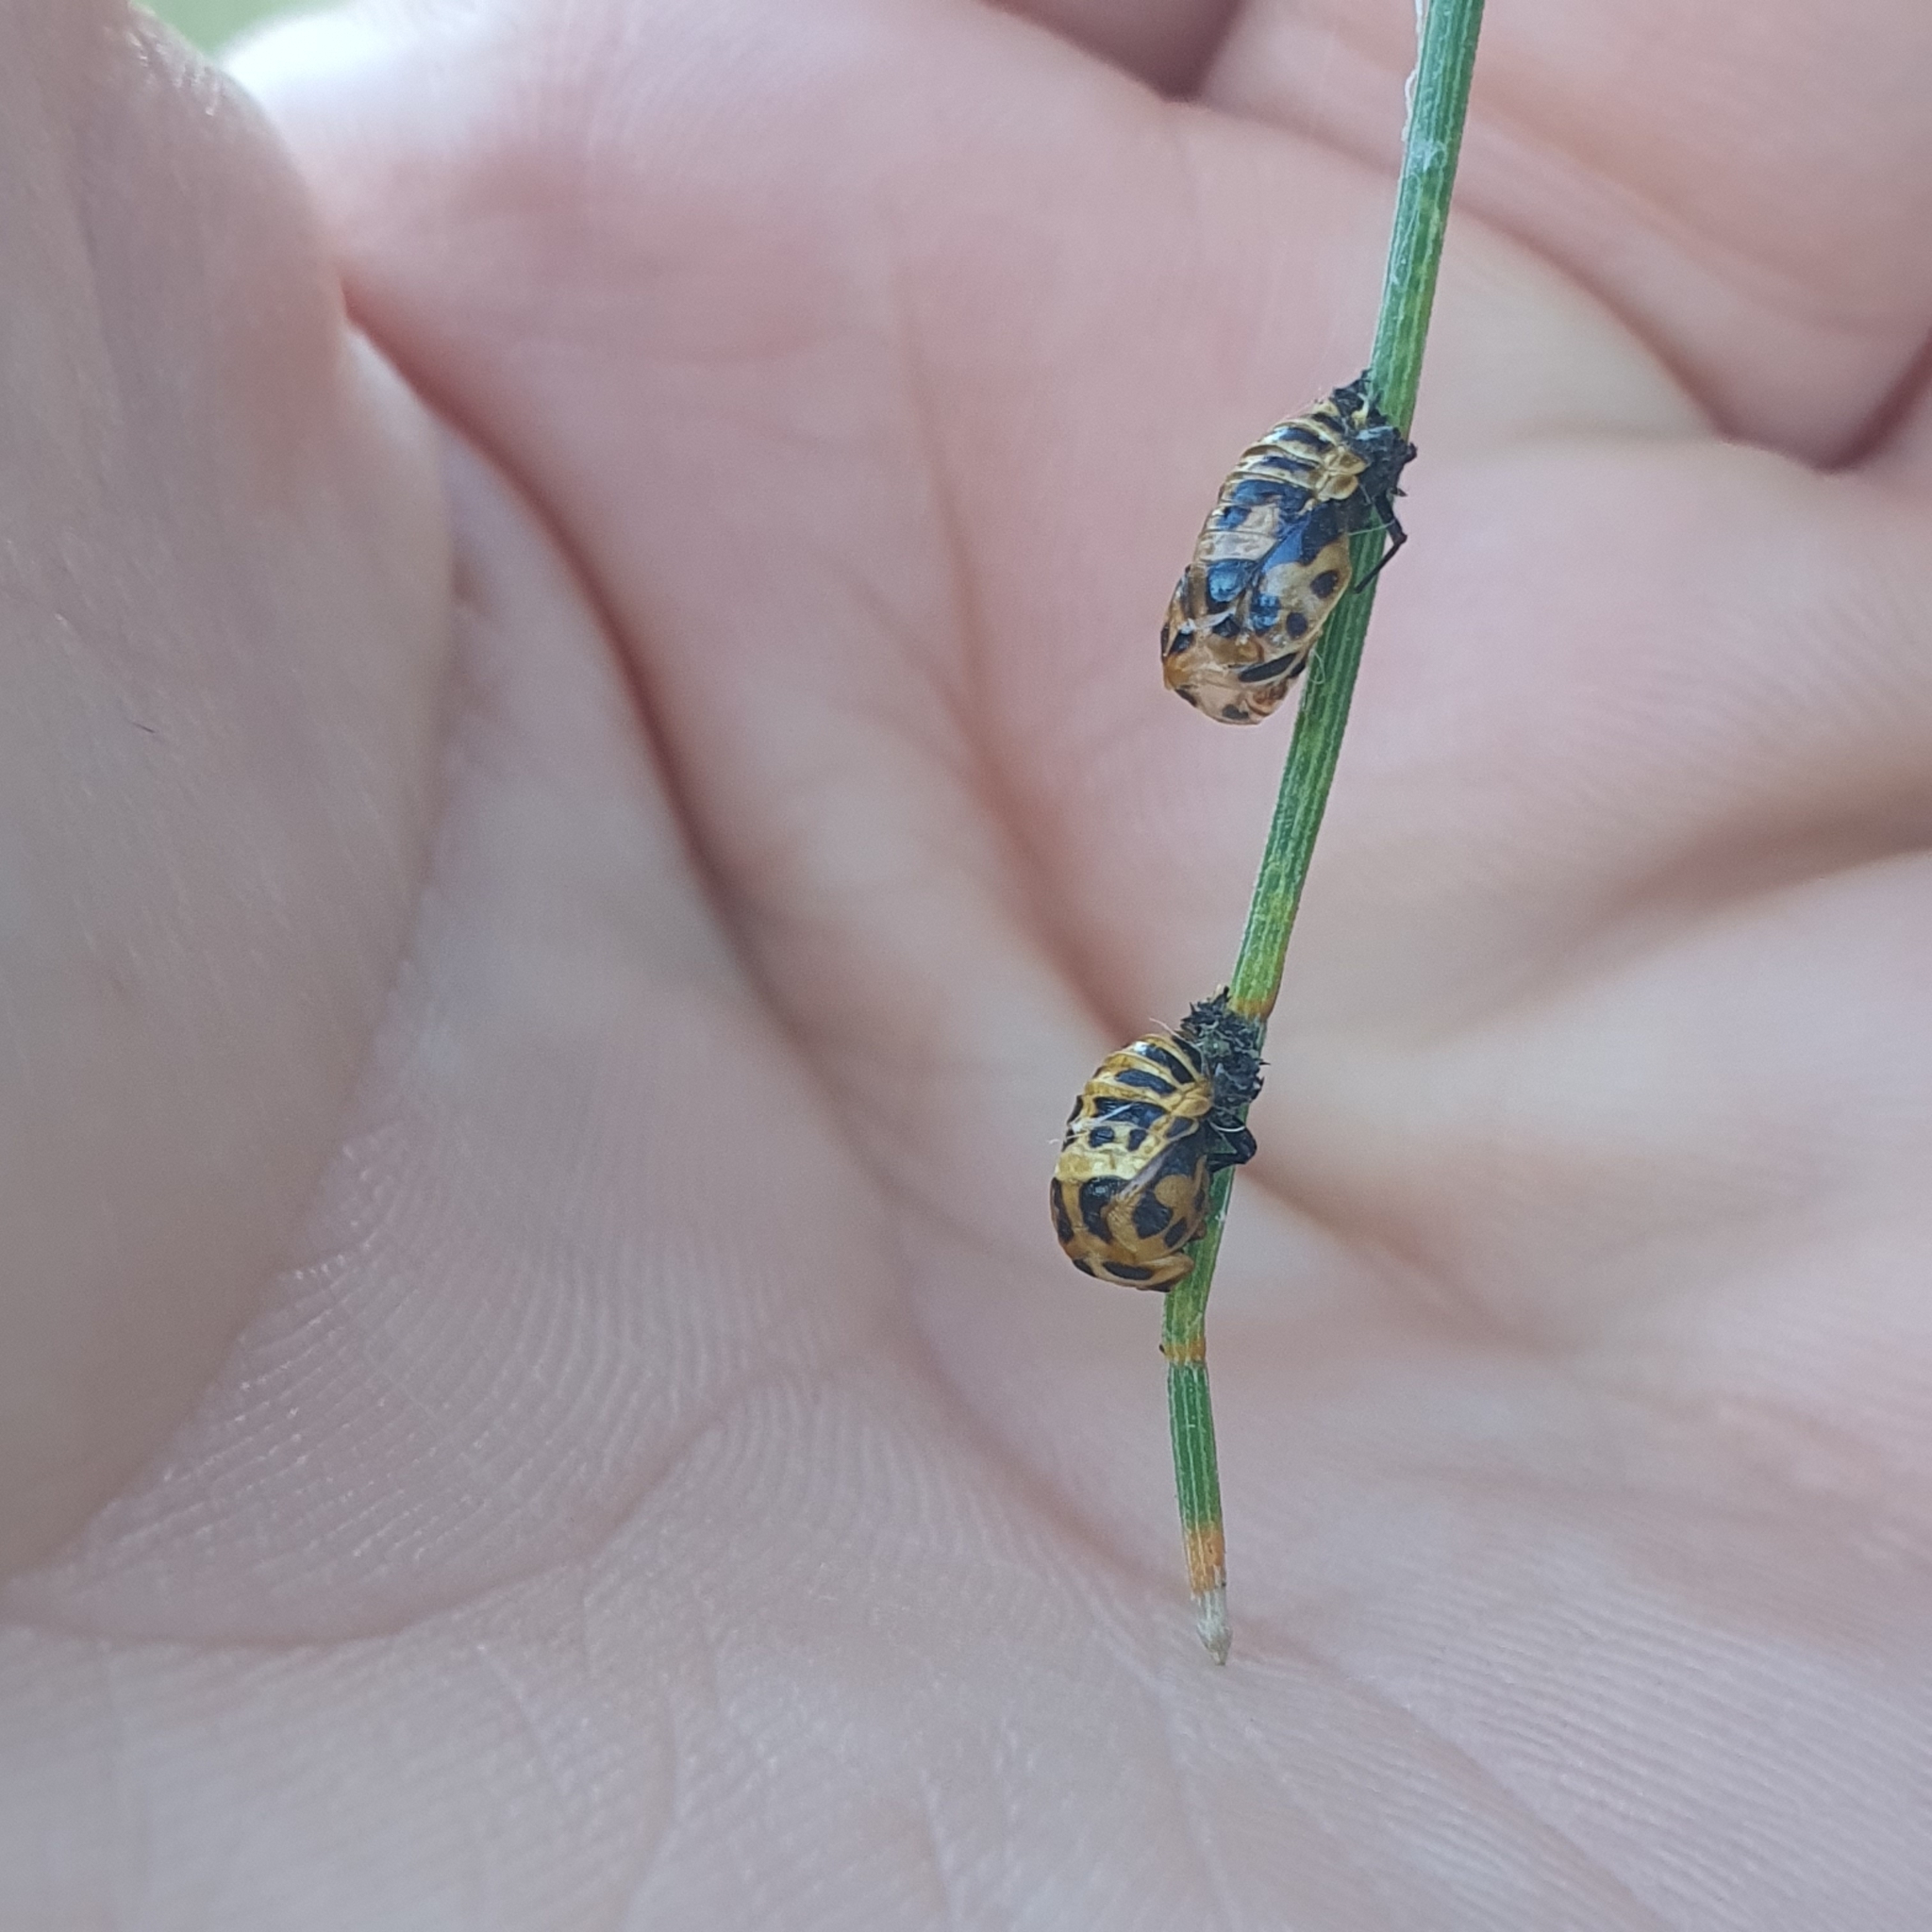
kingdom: Animalia
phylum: Arthropoda
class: Insecta
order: Coleoptera
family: Coccinellidae
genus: Harmonia
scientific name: Harmonia conformis
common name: Common spotted ladybird beetle
